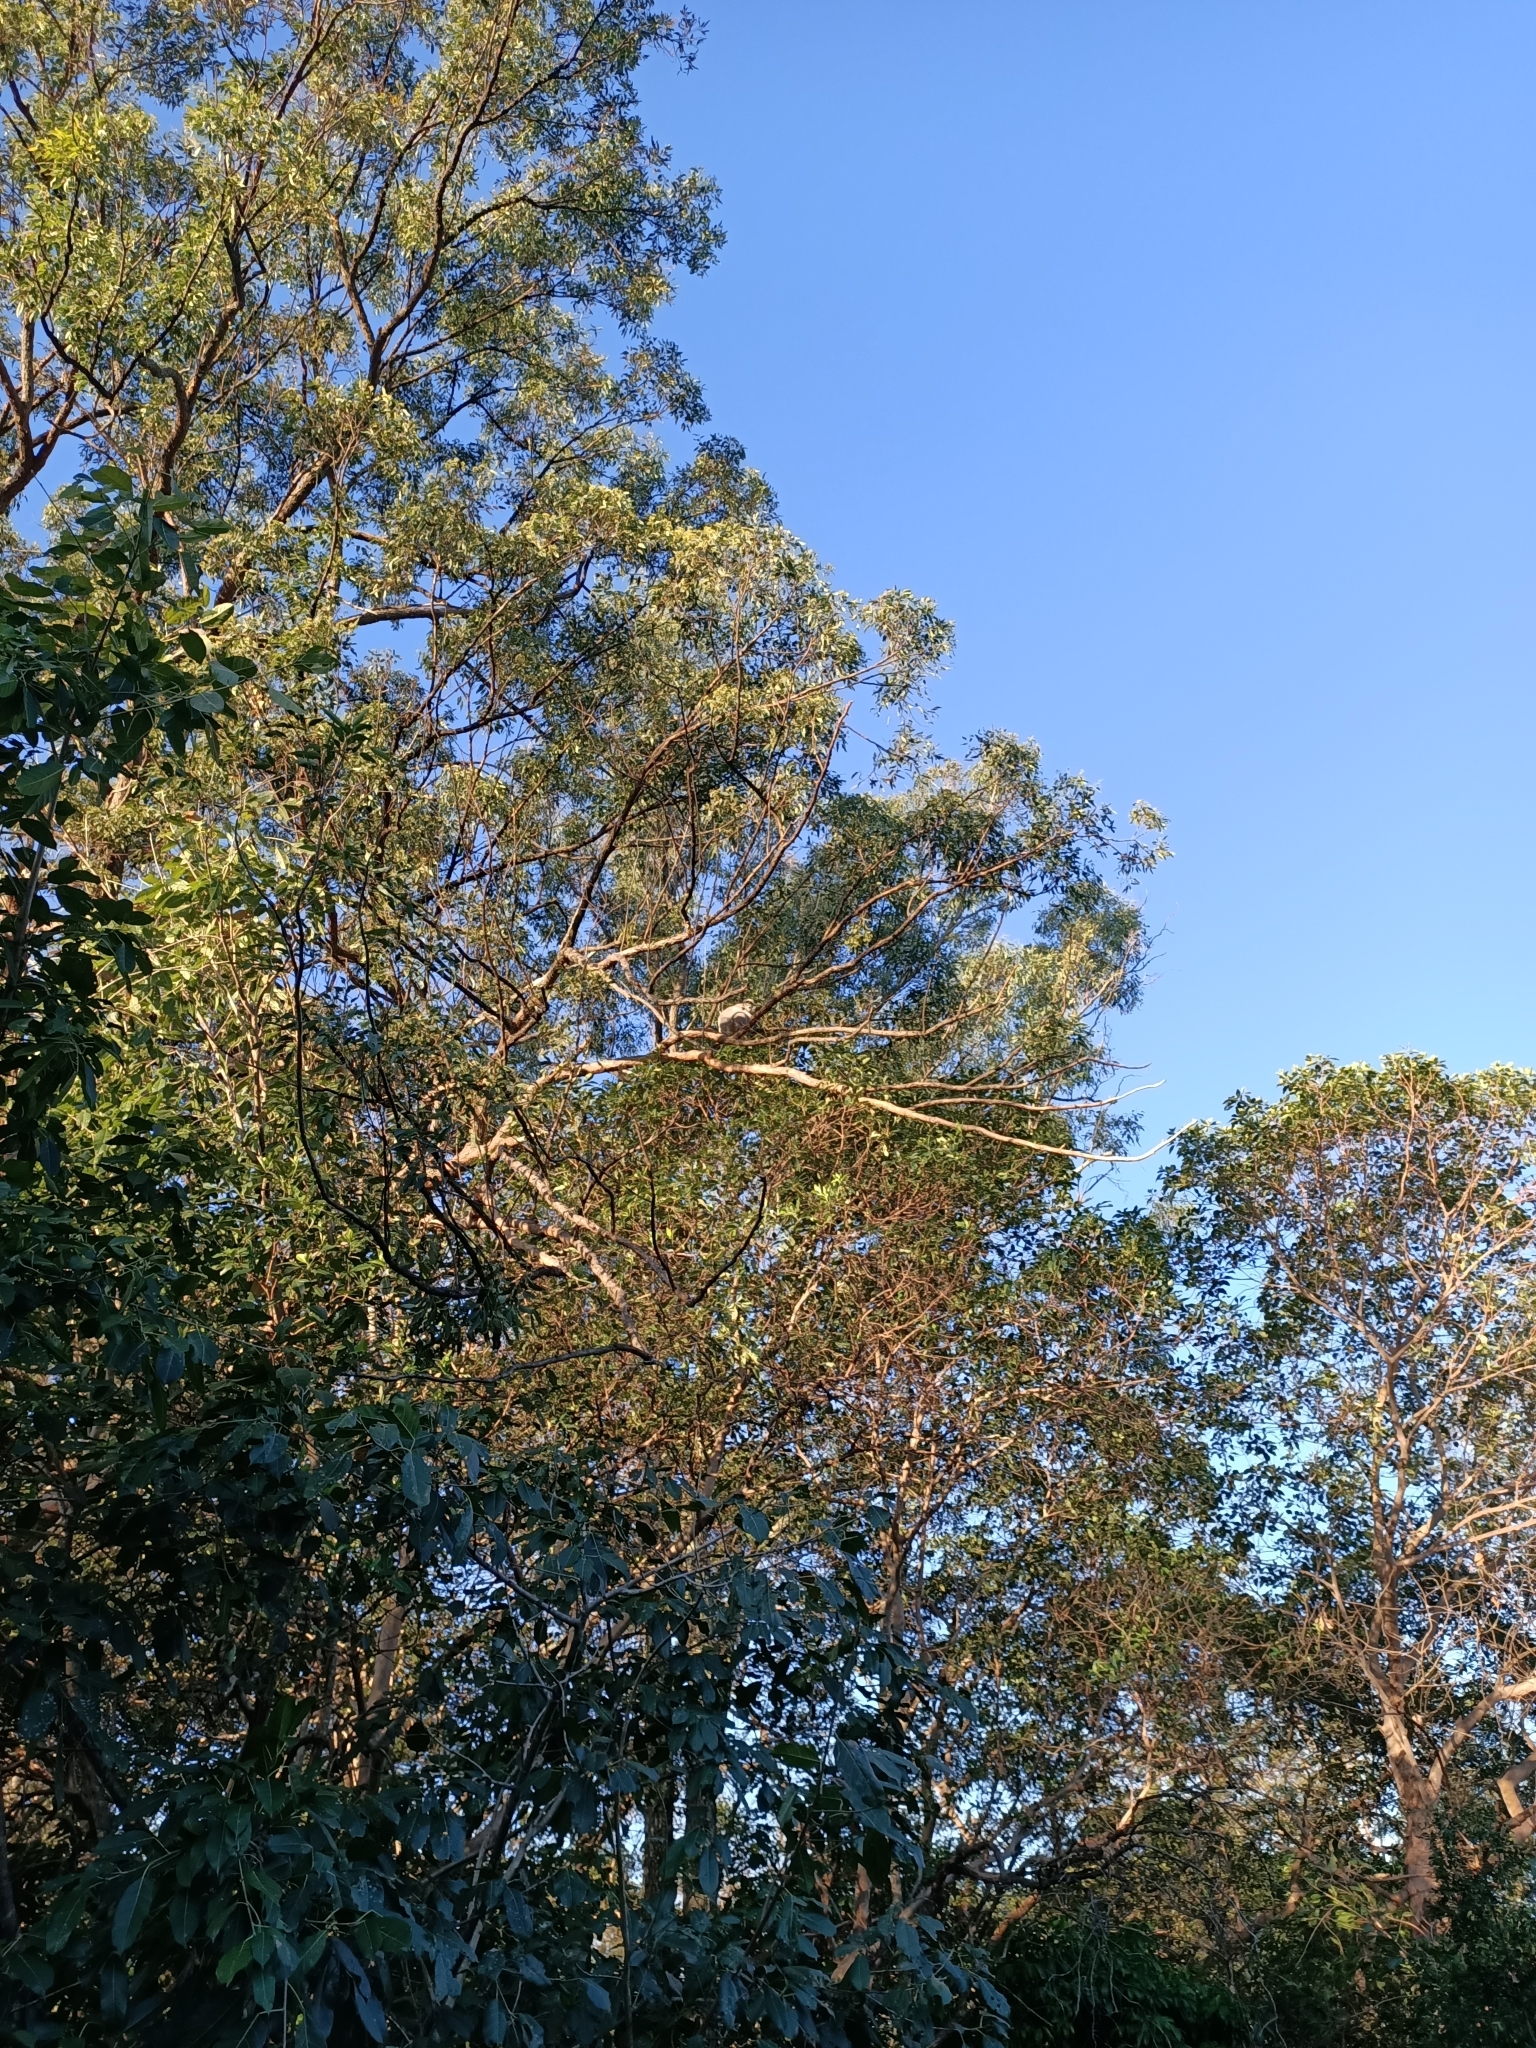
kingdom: Animalia
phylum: Chordata
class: Mammalia
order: Diprotodontia
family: Phascolarctidae
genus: Phascolarctos
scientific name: Phascolarctos cinereus
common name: Koala
